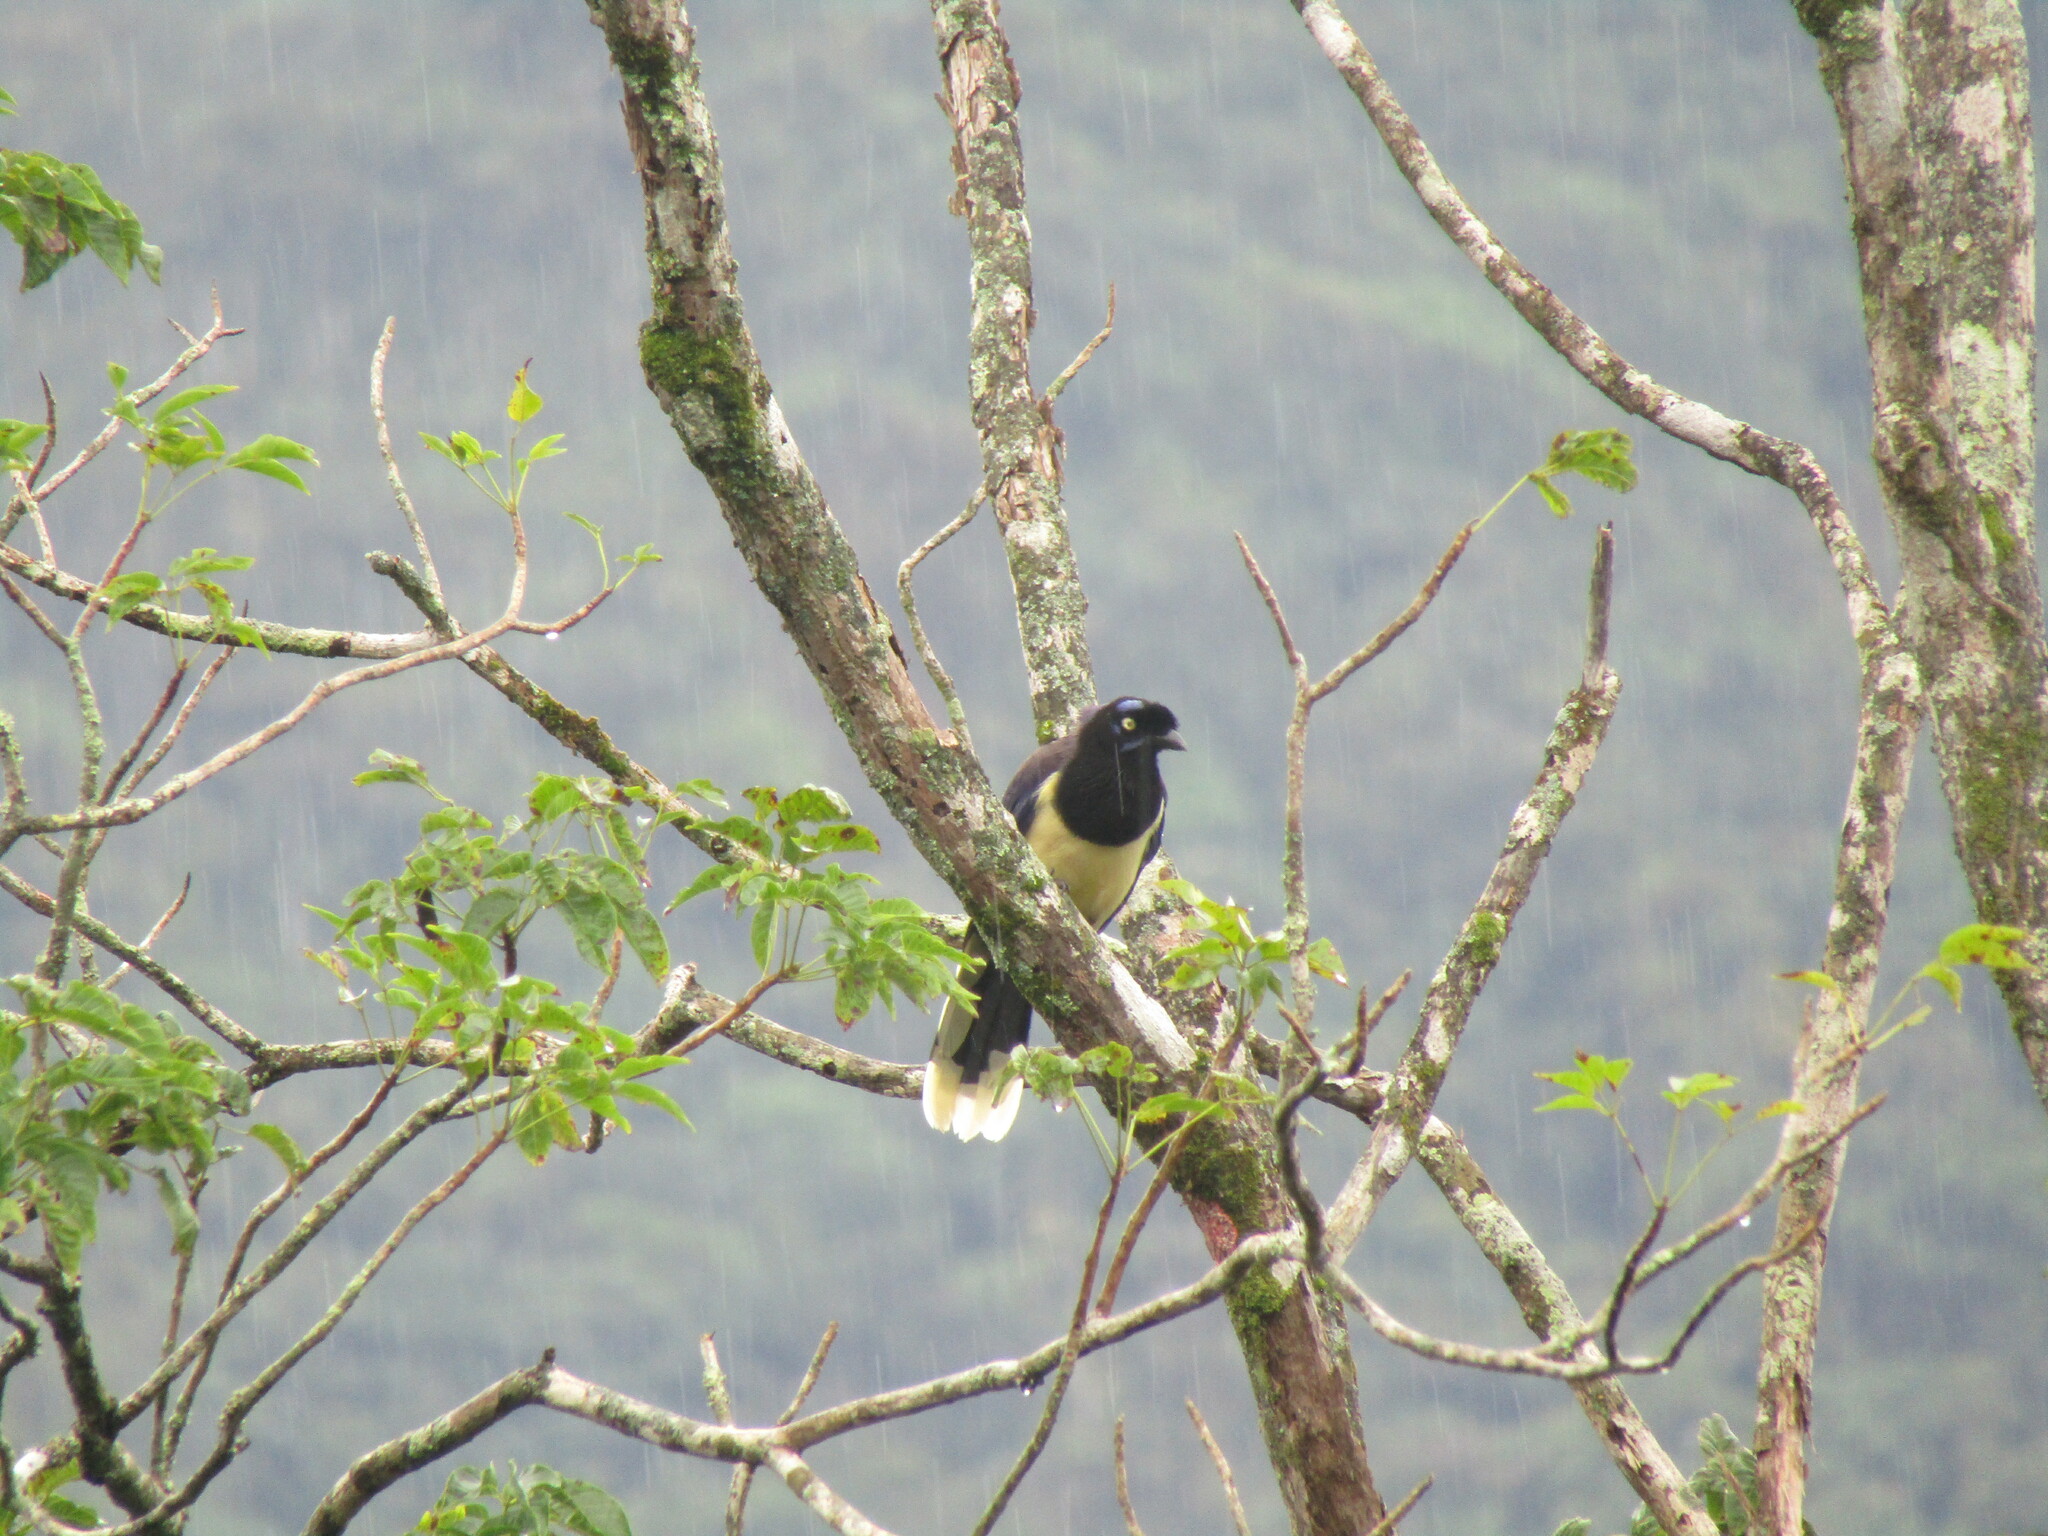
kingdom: Animalia
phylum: Chordata
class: Aves
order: Passeriformes
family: Corvidae
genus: Cyanocorax
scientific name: Cyanocorax affinis
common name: Black-chested jay
